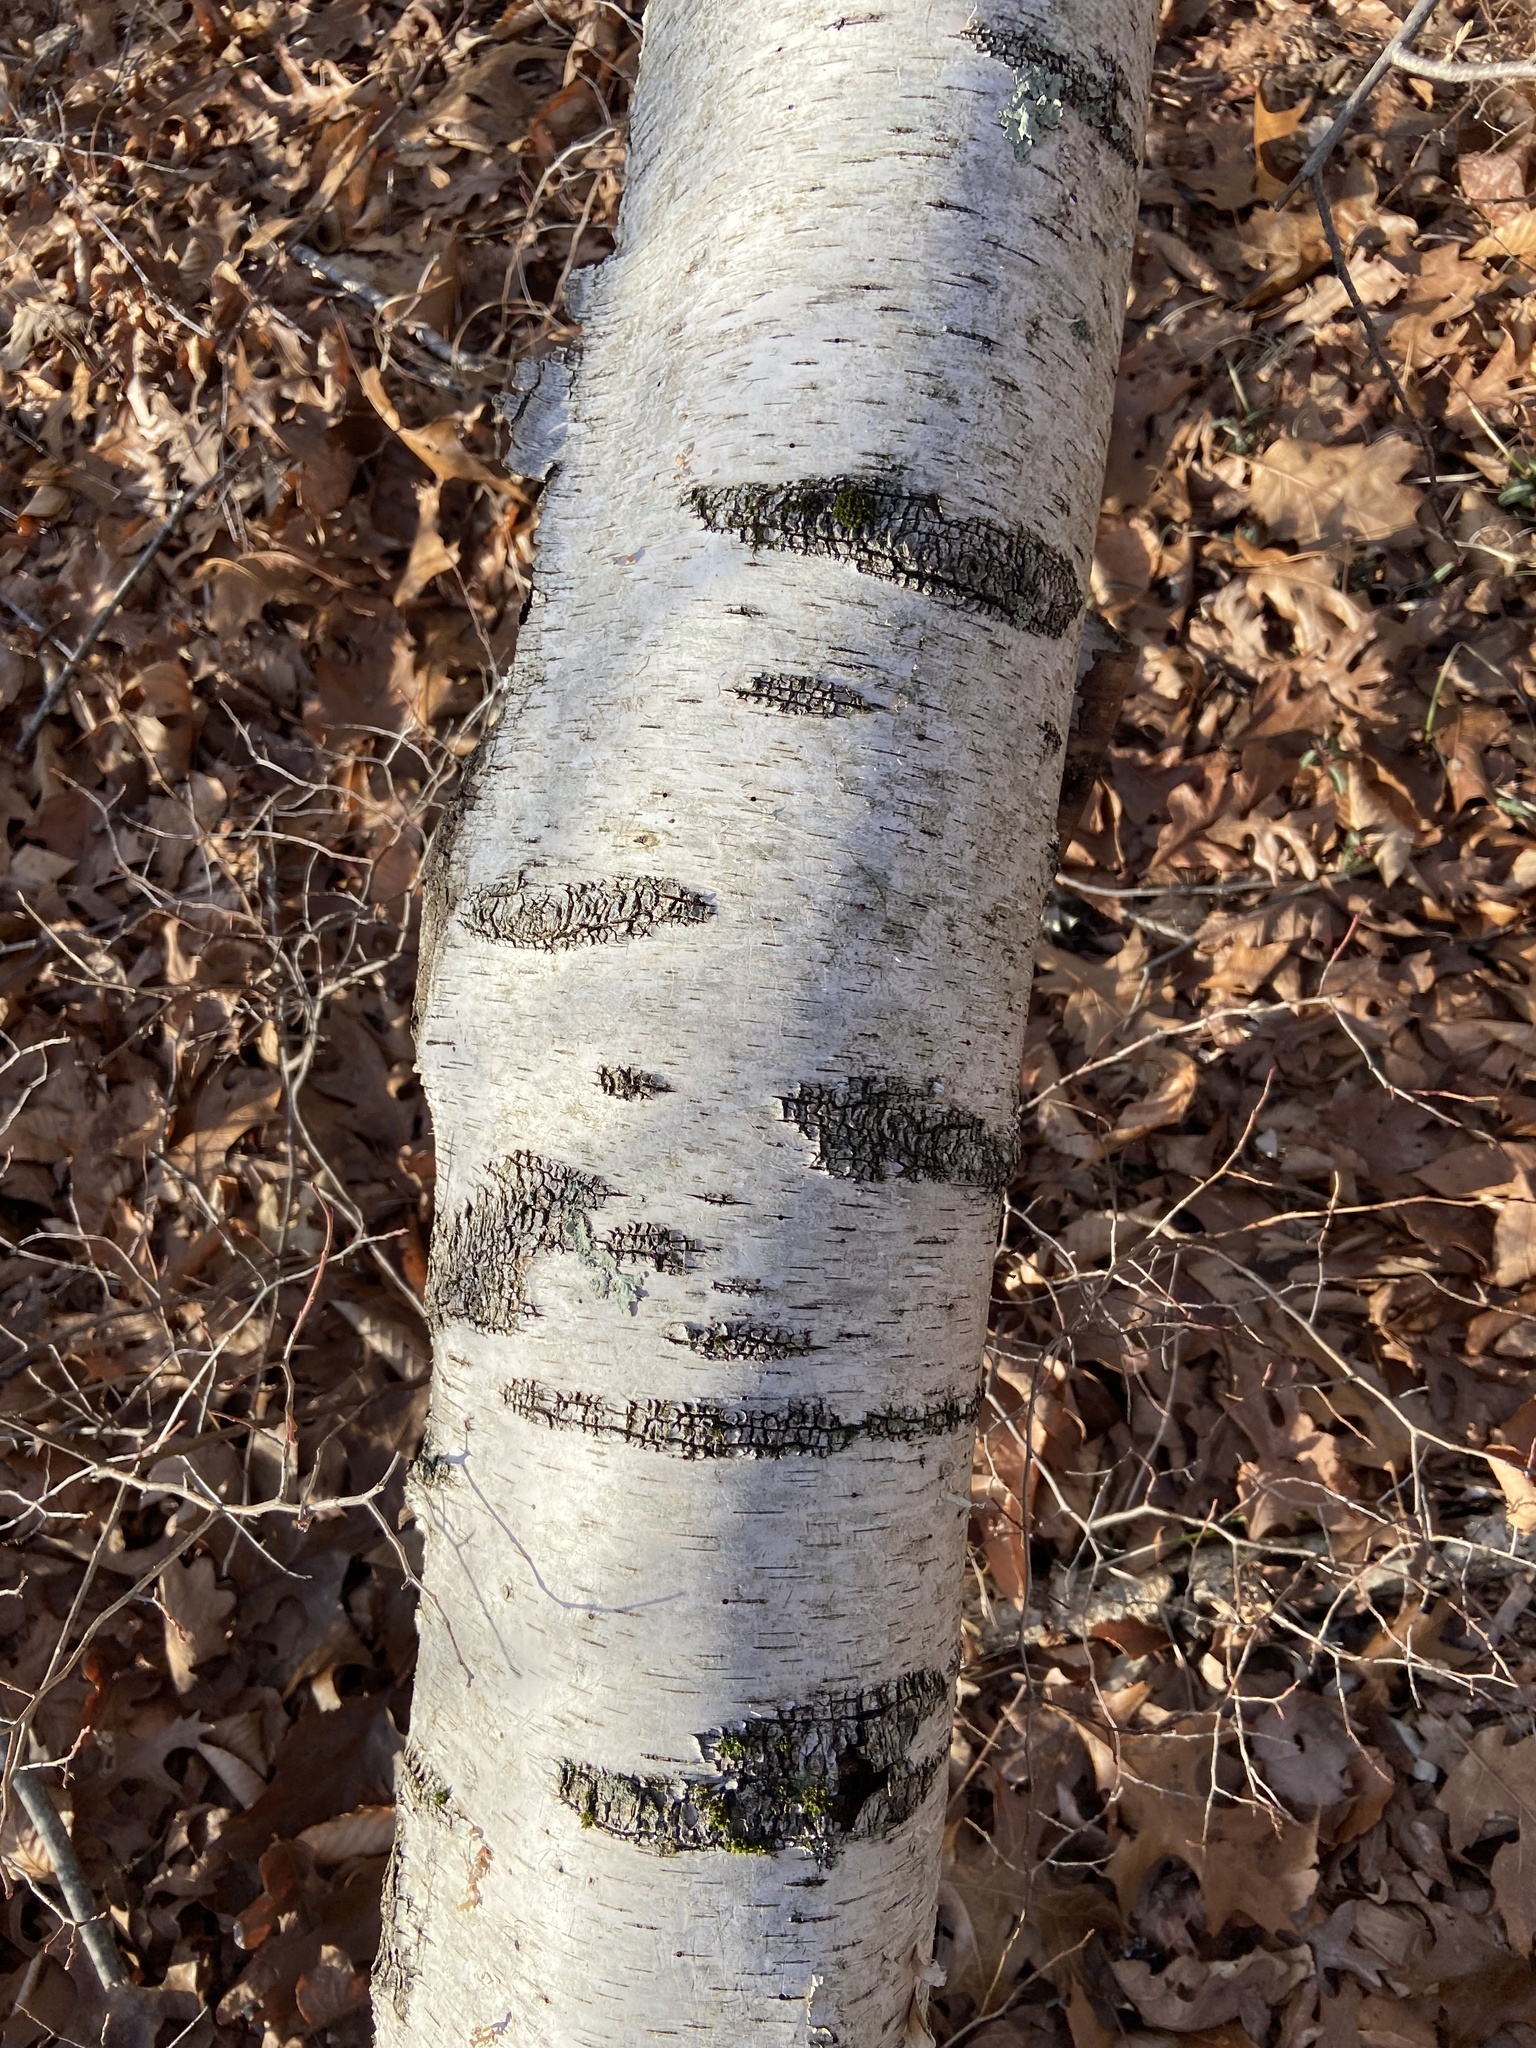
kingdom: Plantae
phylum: Tracheophyta
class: Magnoliopsida
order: Fagales
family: Betulaceae
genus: Betula
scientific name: Betula populifolia
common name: Fire birch
